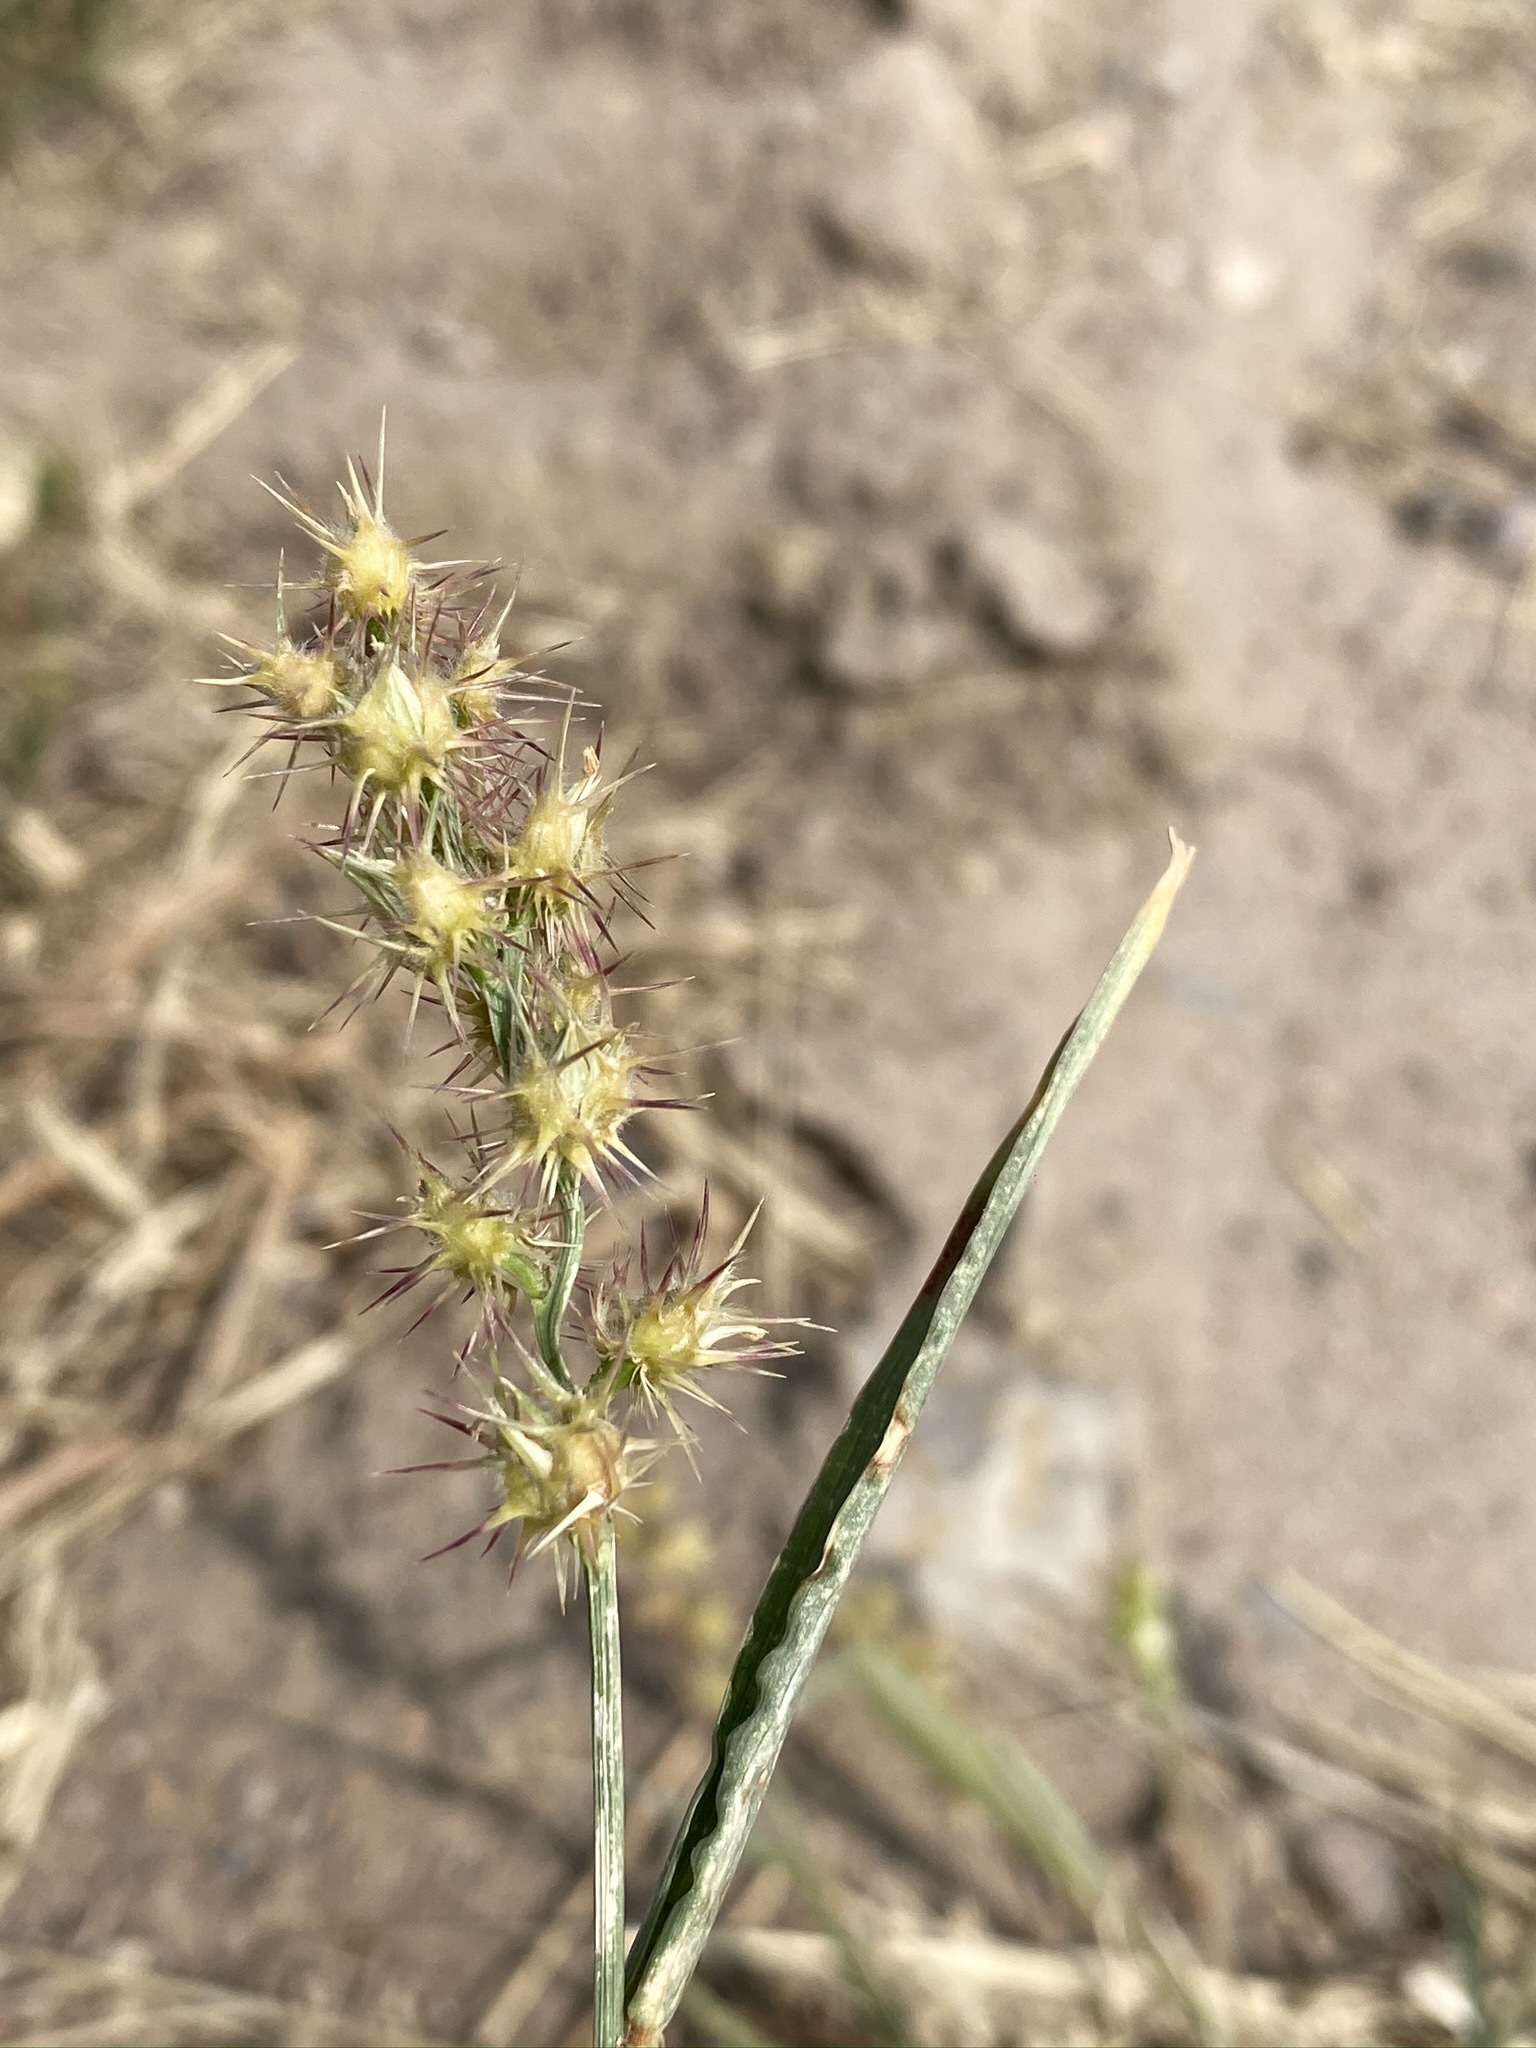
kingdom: Plantae
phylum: Tracheophyta
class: Liliopsida
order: Poales
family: Poaceae
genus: Cenchrus
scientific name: Cenchrus longispinus
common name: Mat sandbur
